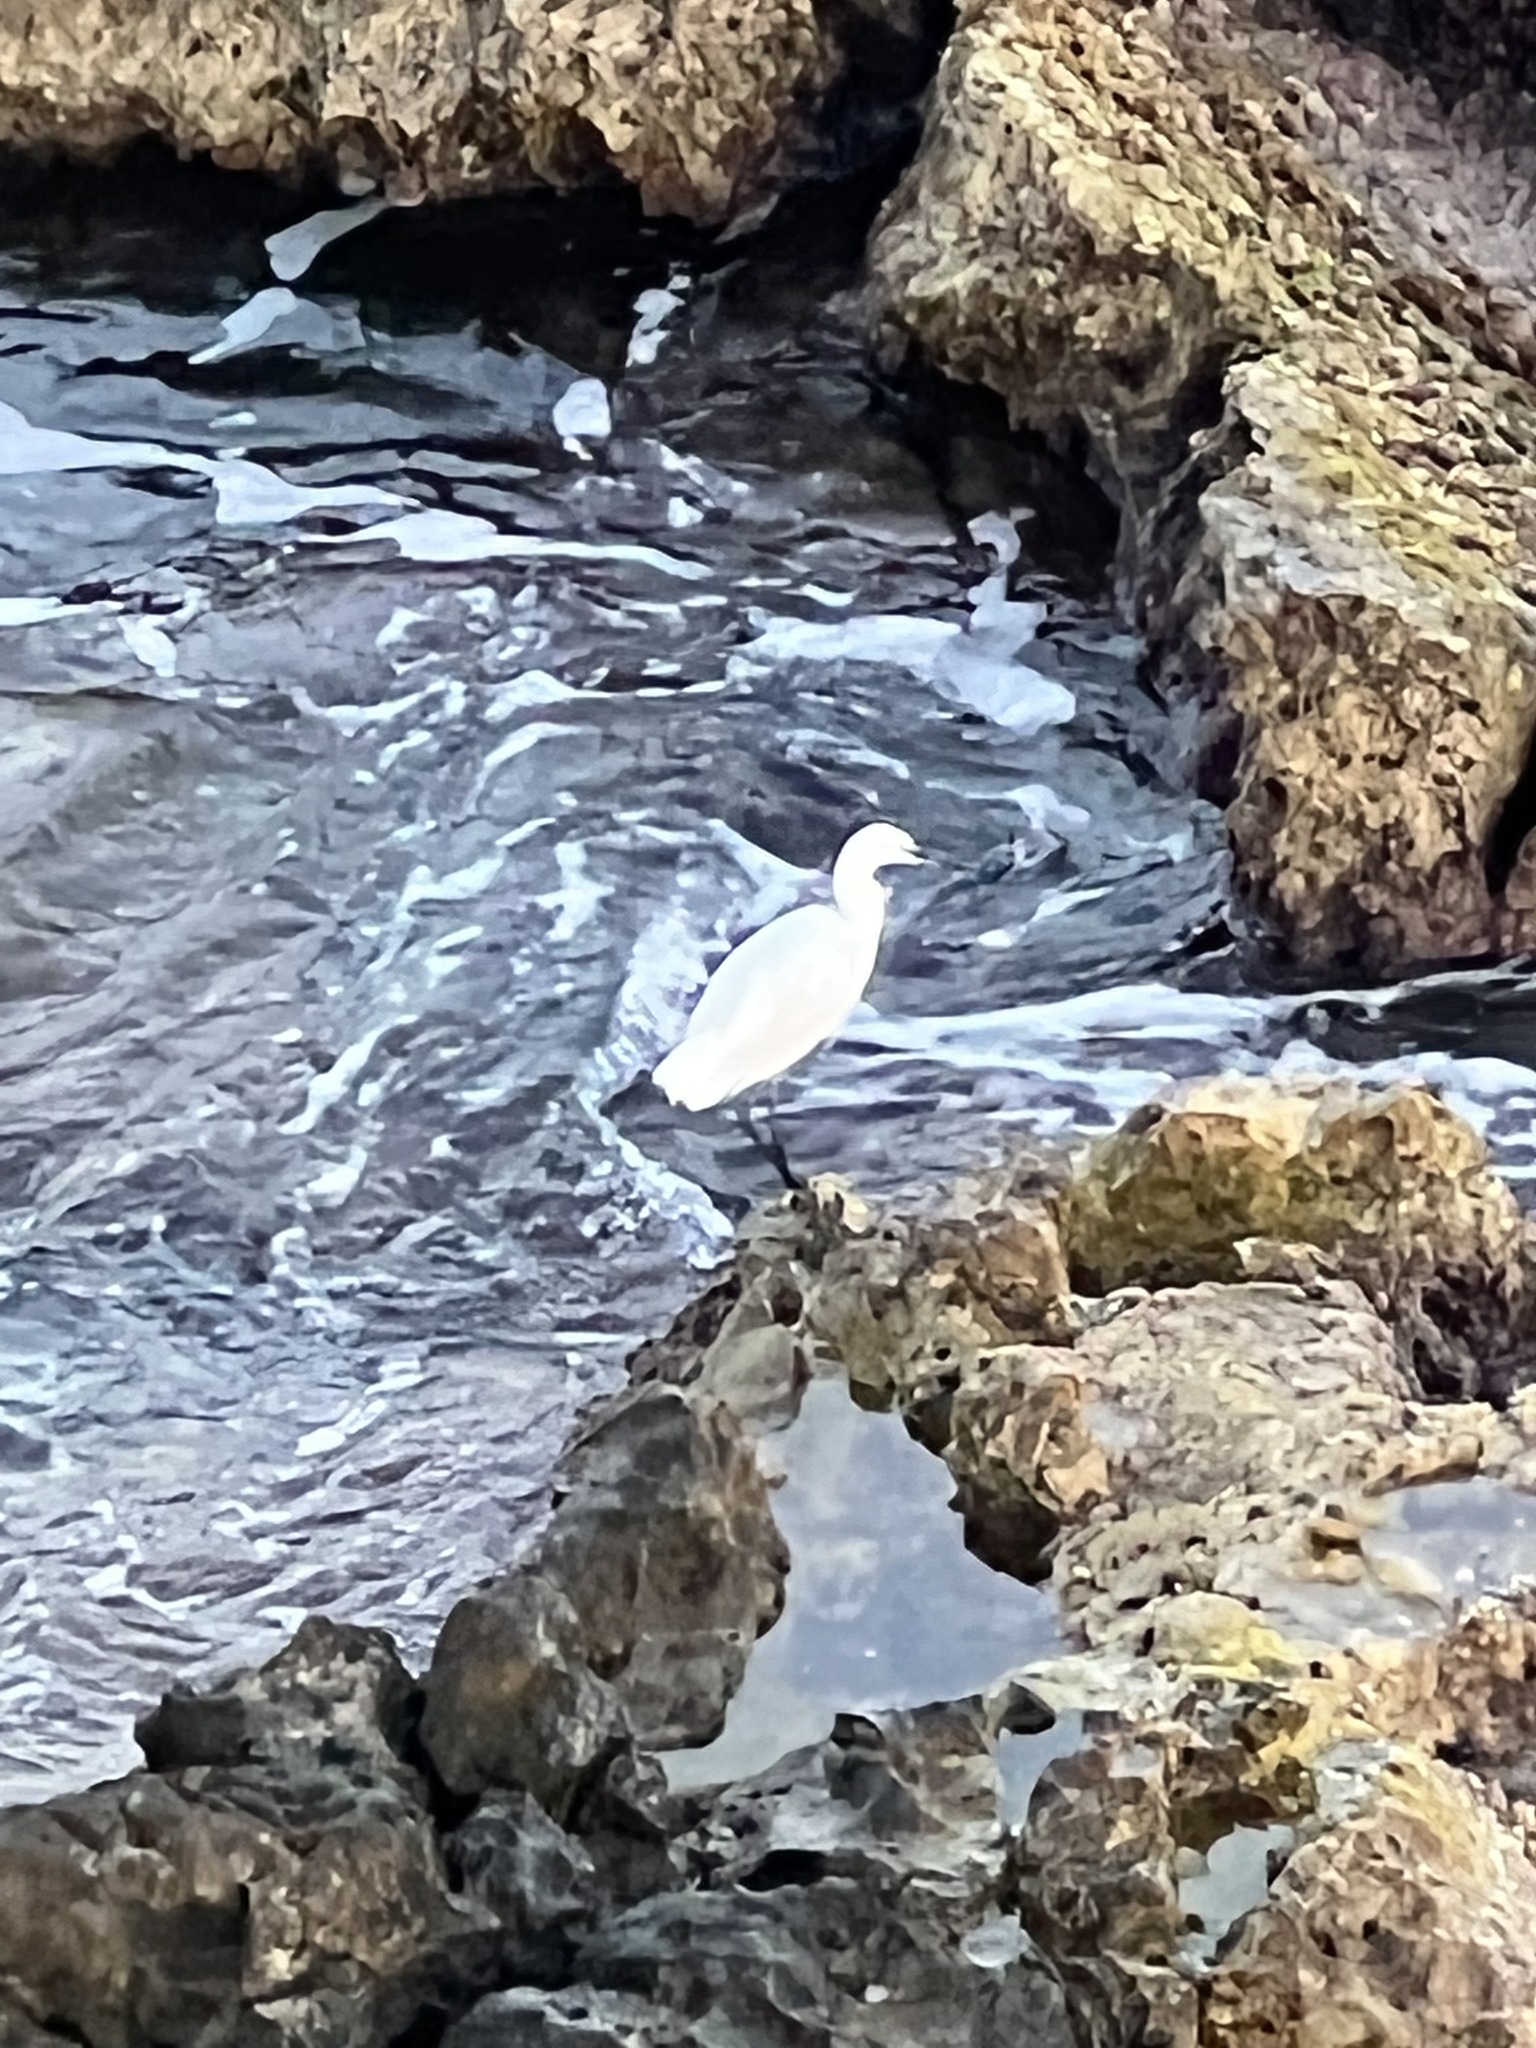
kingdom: Animalia
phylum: Chordata
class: Aves
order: Pelecaniformes
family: Ardeidae
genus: Egretta
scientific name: Egretta garzetta
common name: Little egret
